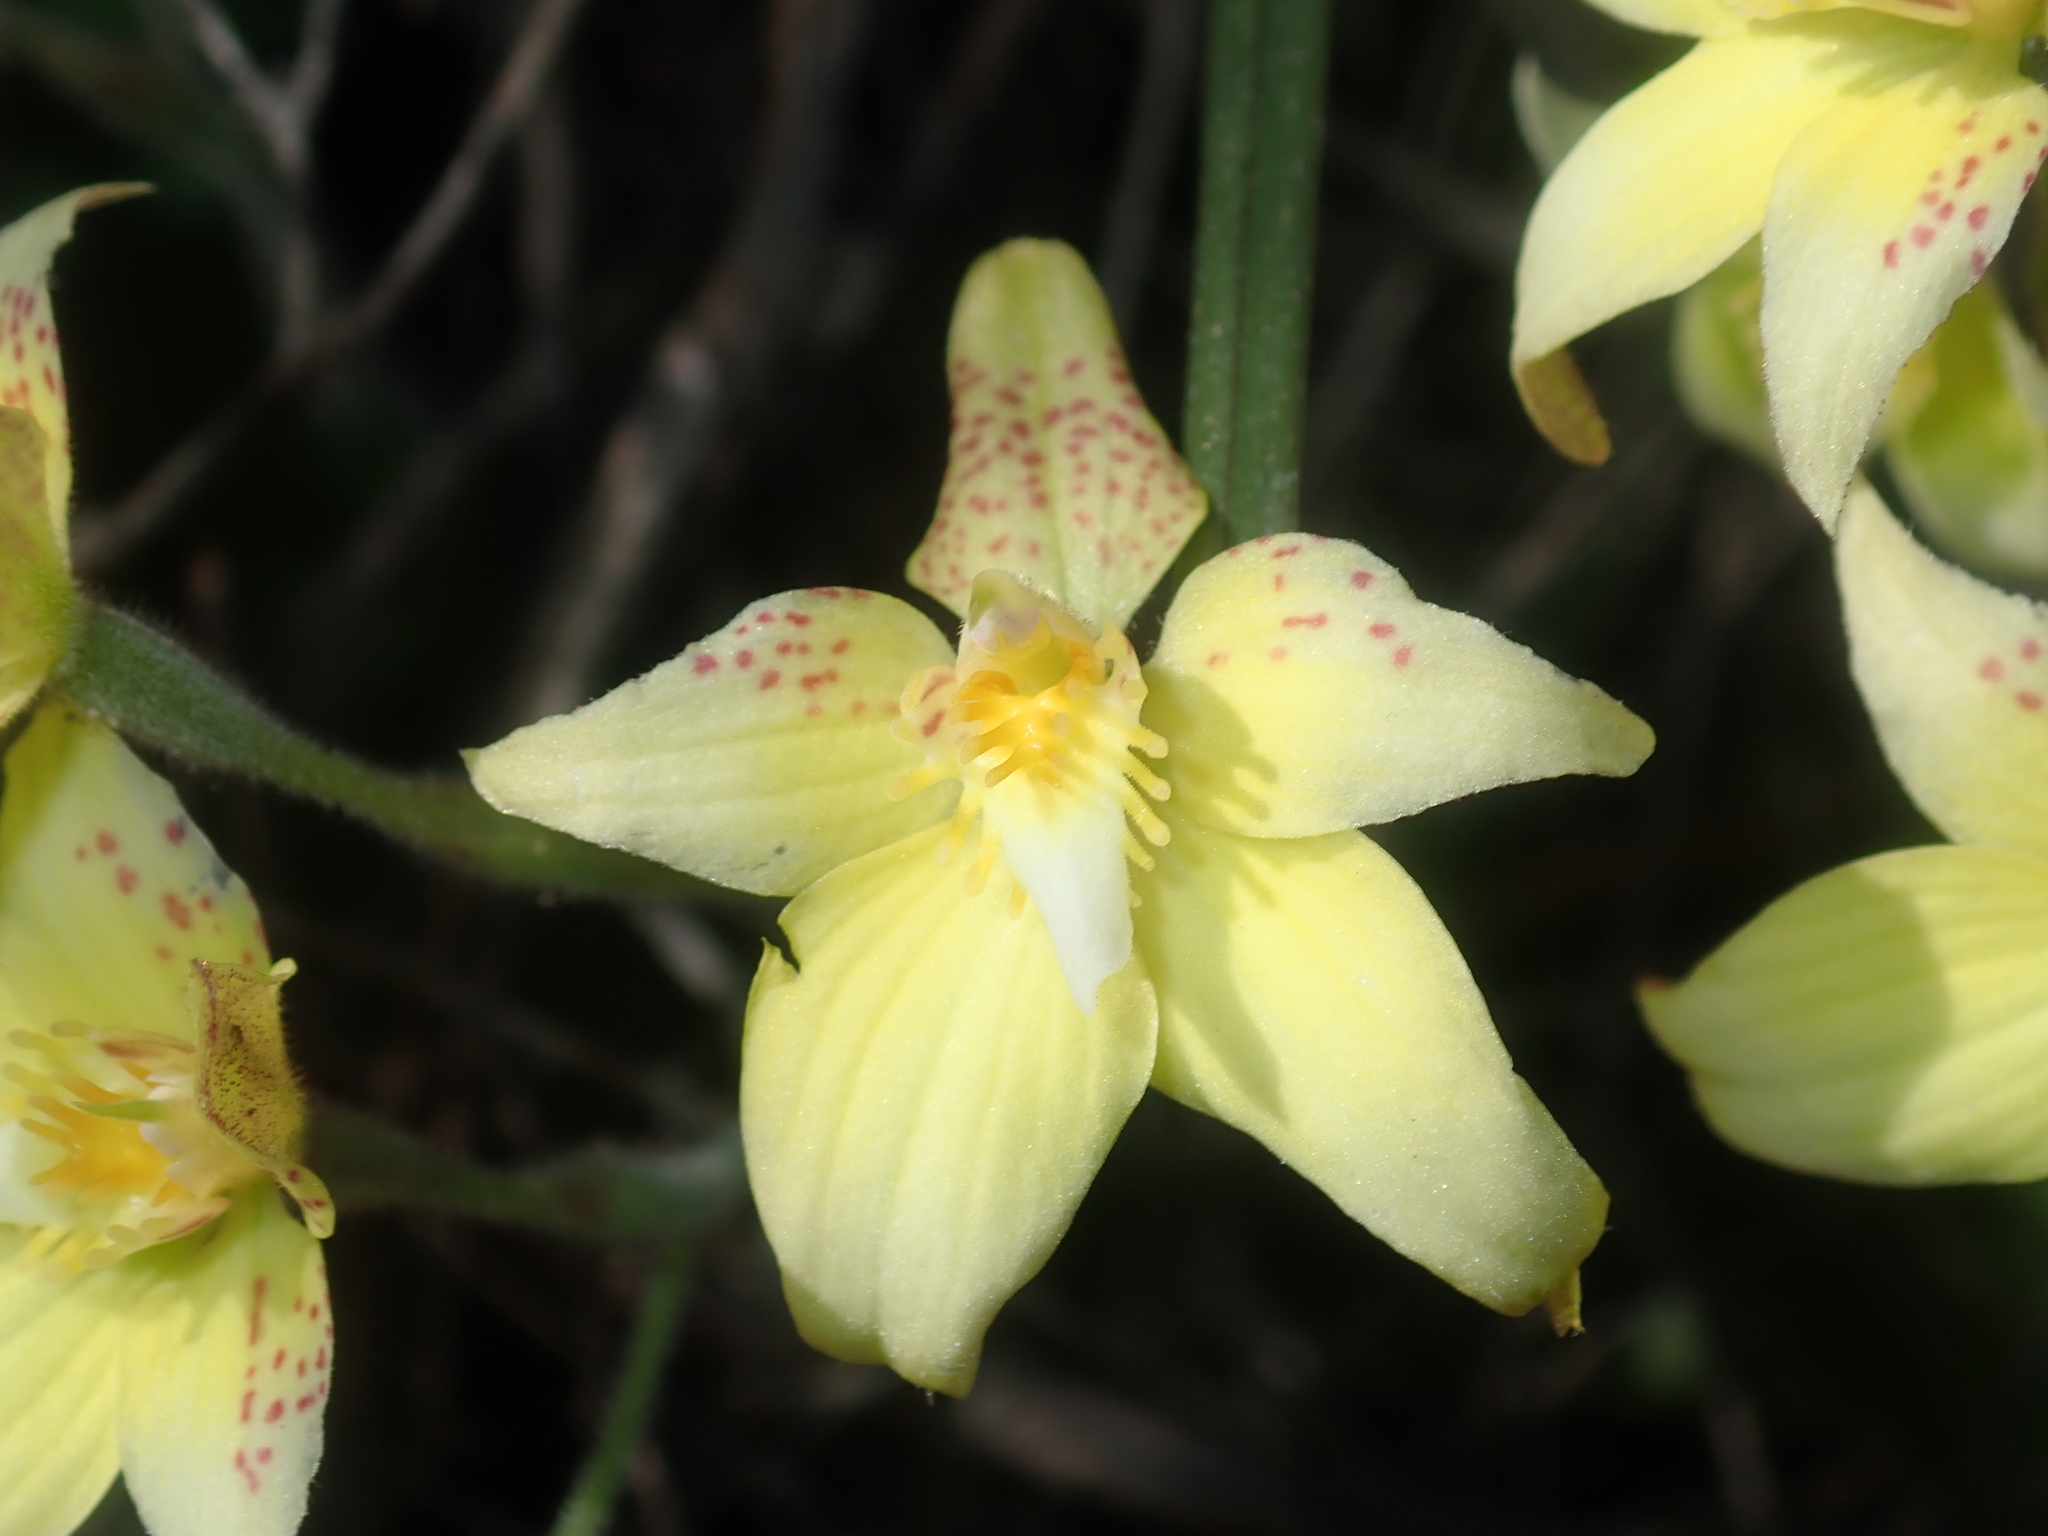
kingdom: Plantae
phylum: Tracheophyta
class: Liliopsida
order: Asparagales
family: Orchidaceae
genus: Caladenia
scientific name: Caladenia flava
